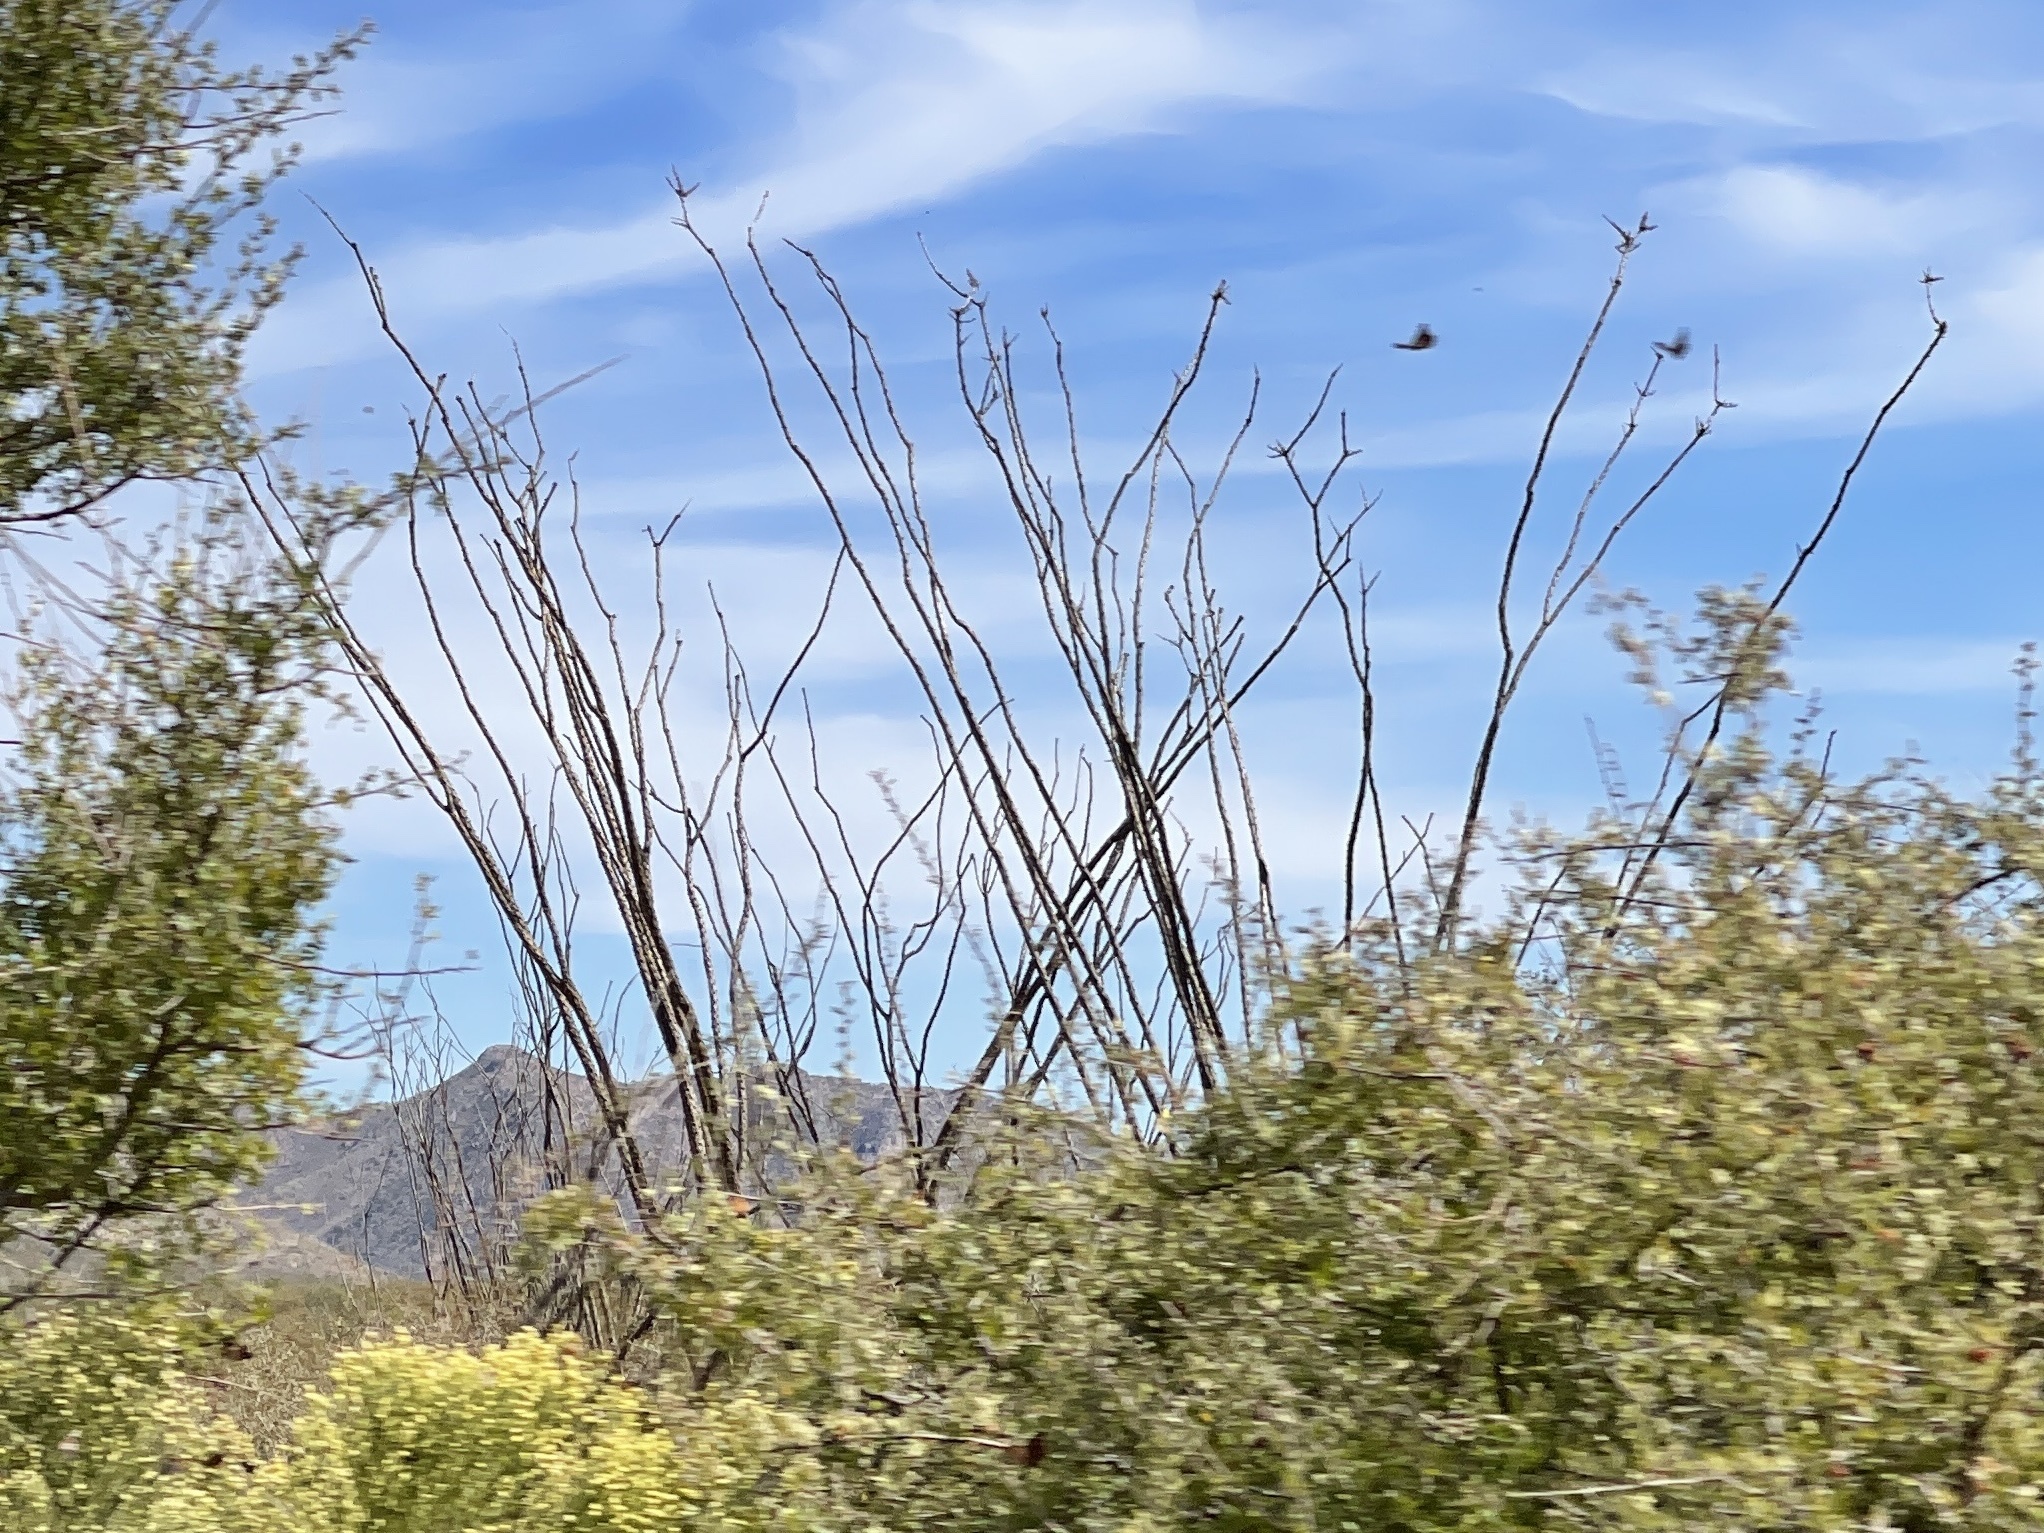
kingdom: Plantae
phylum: Tracheophyta
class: Magnoliopsida
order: Ericales
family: Fouquieriaceae
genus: Fouquieria
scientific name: Fouquieria splendens
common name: Vine-cactus
